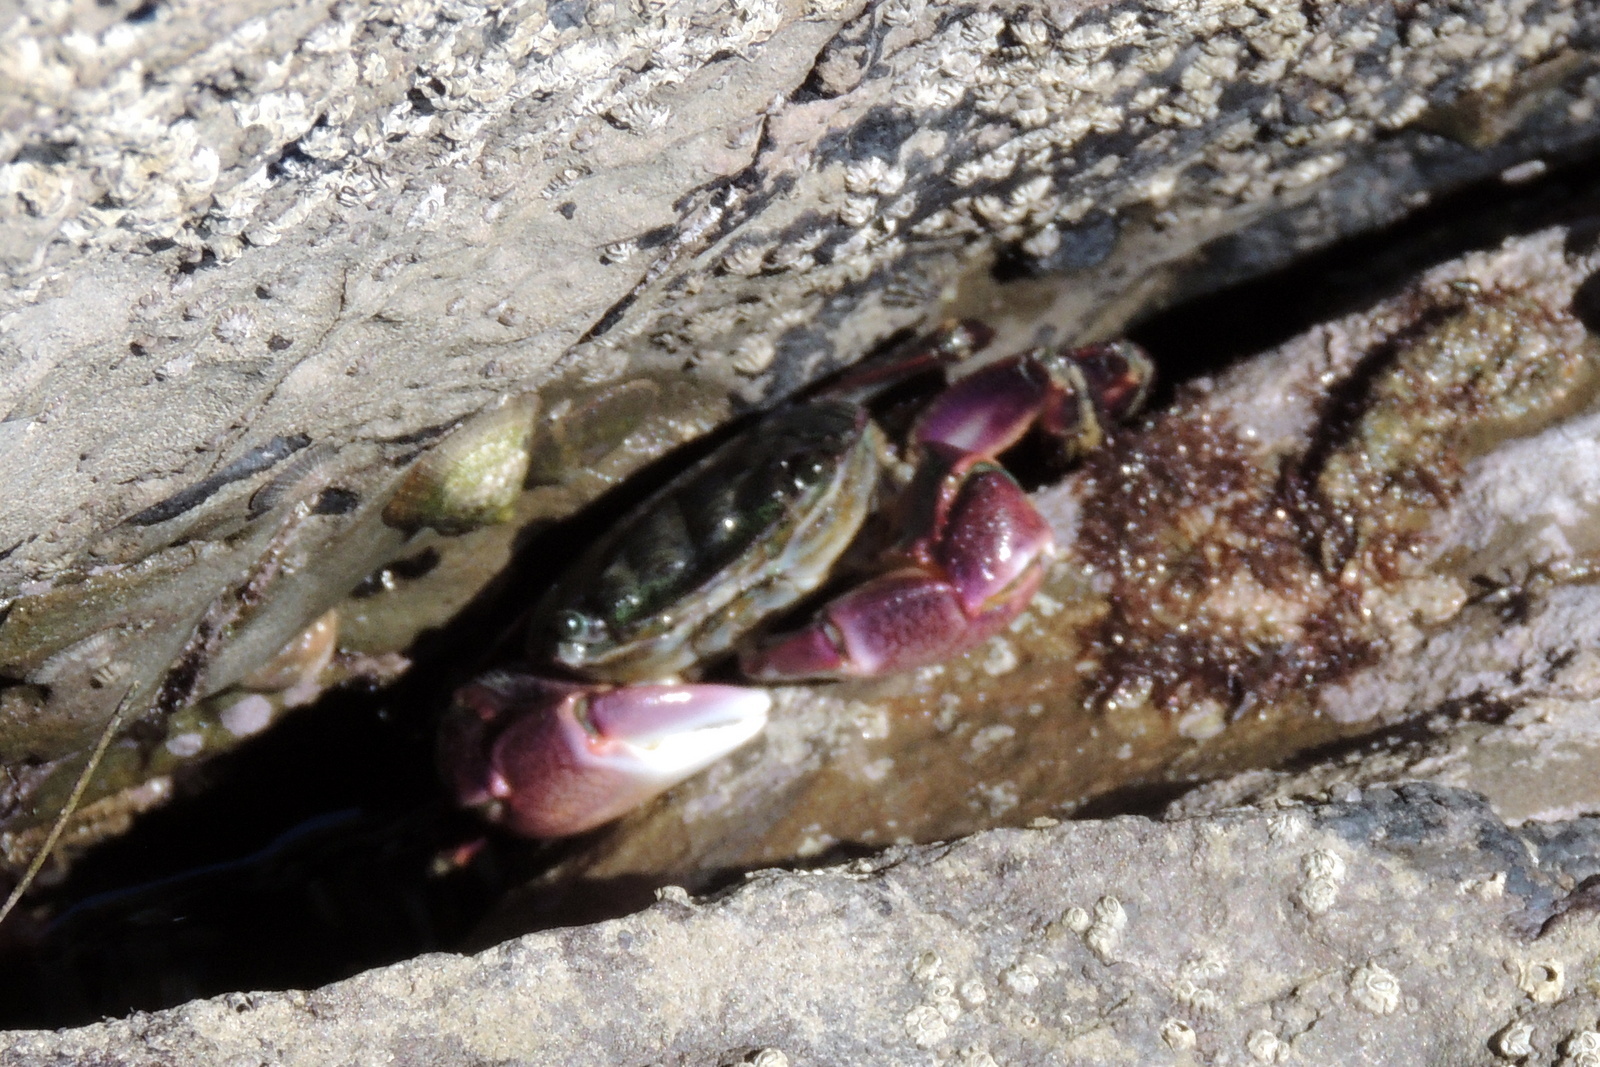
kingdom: Animalia
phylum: Arthropoda
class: Malacostraca
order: Decapoda
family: Grapsidae
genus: Pachygrapsus
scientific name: Pachygrapsus crassipes
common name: Striped shore crab
